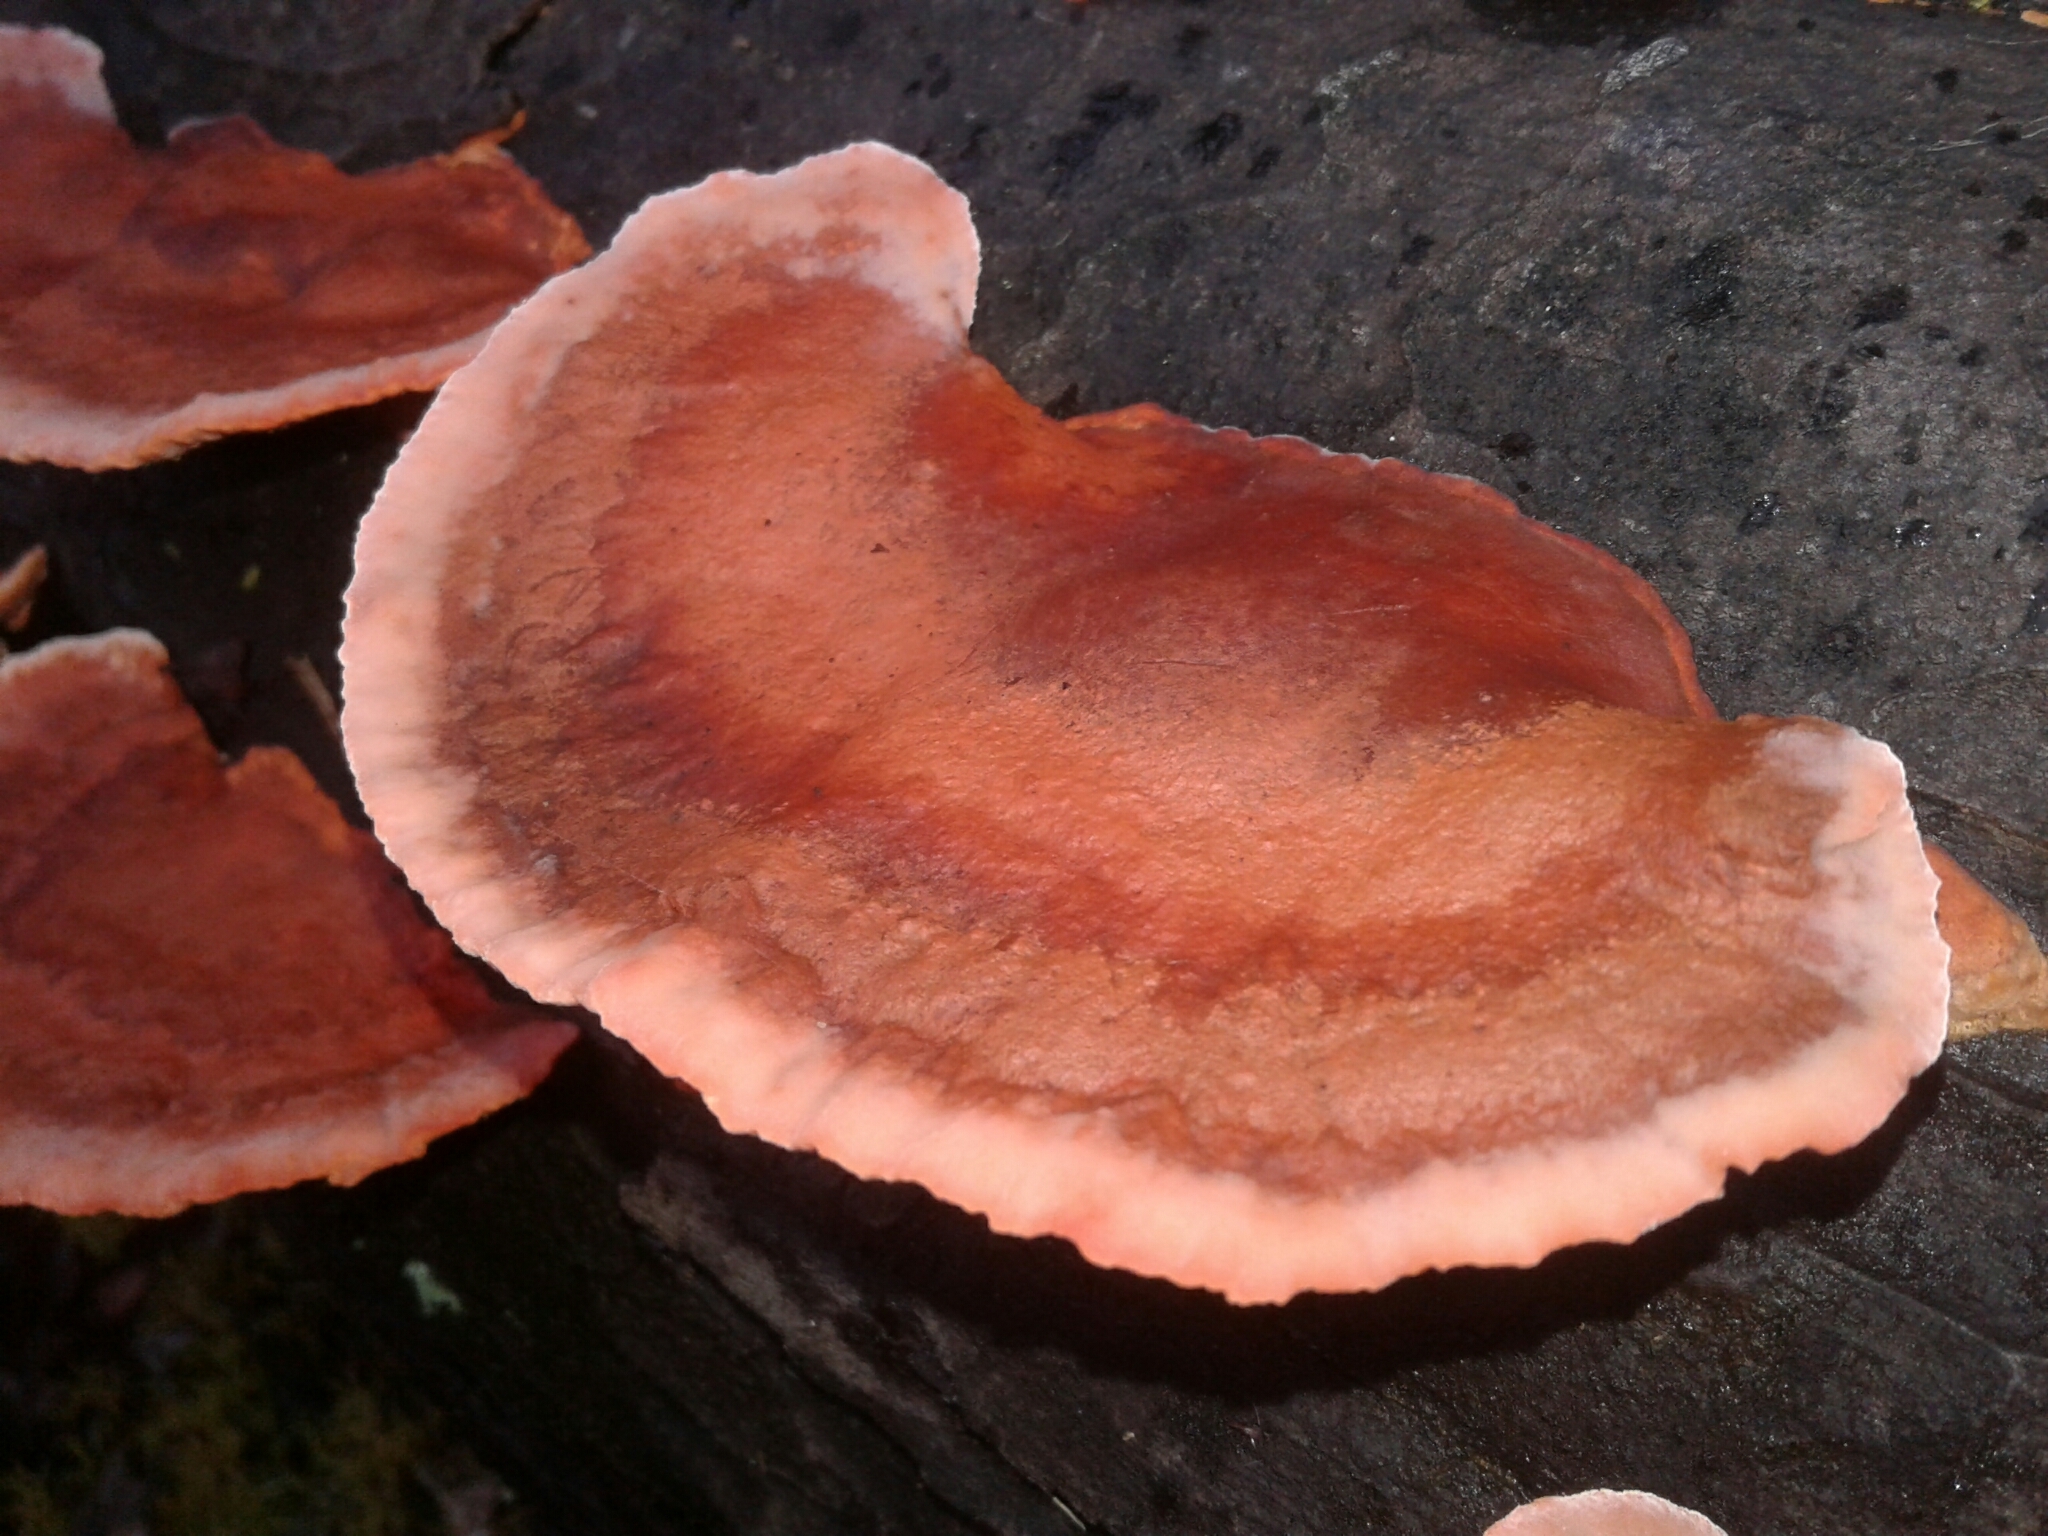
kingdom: Fungi
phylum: Basidiomycota
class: Agaricomycetes
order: Polyporales
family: Polyporaceae
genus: Trametes
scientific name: Trametes coccinea
